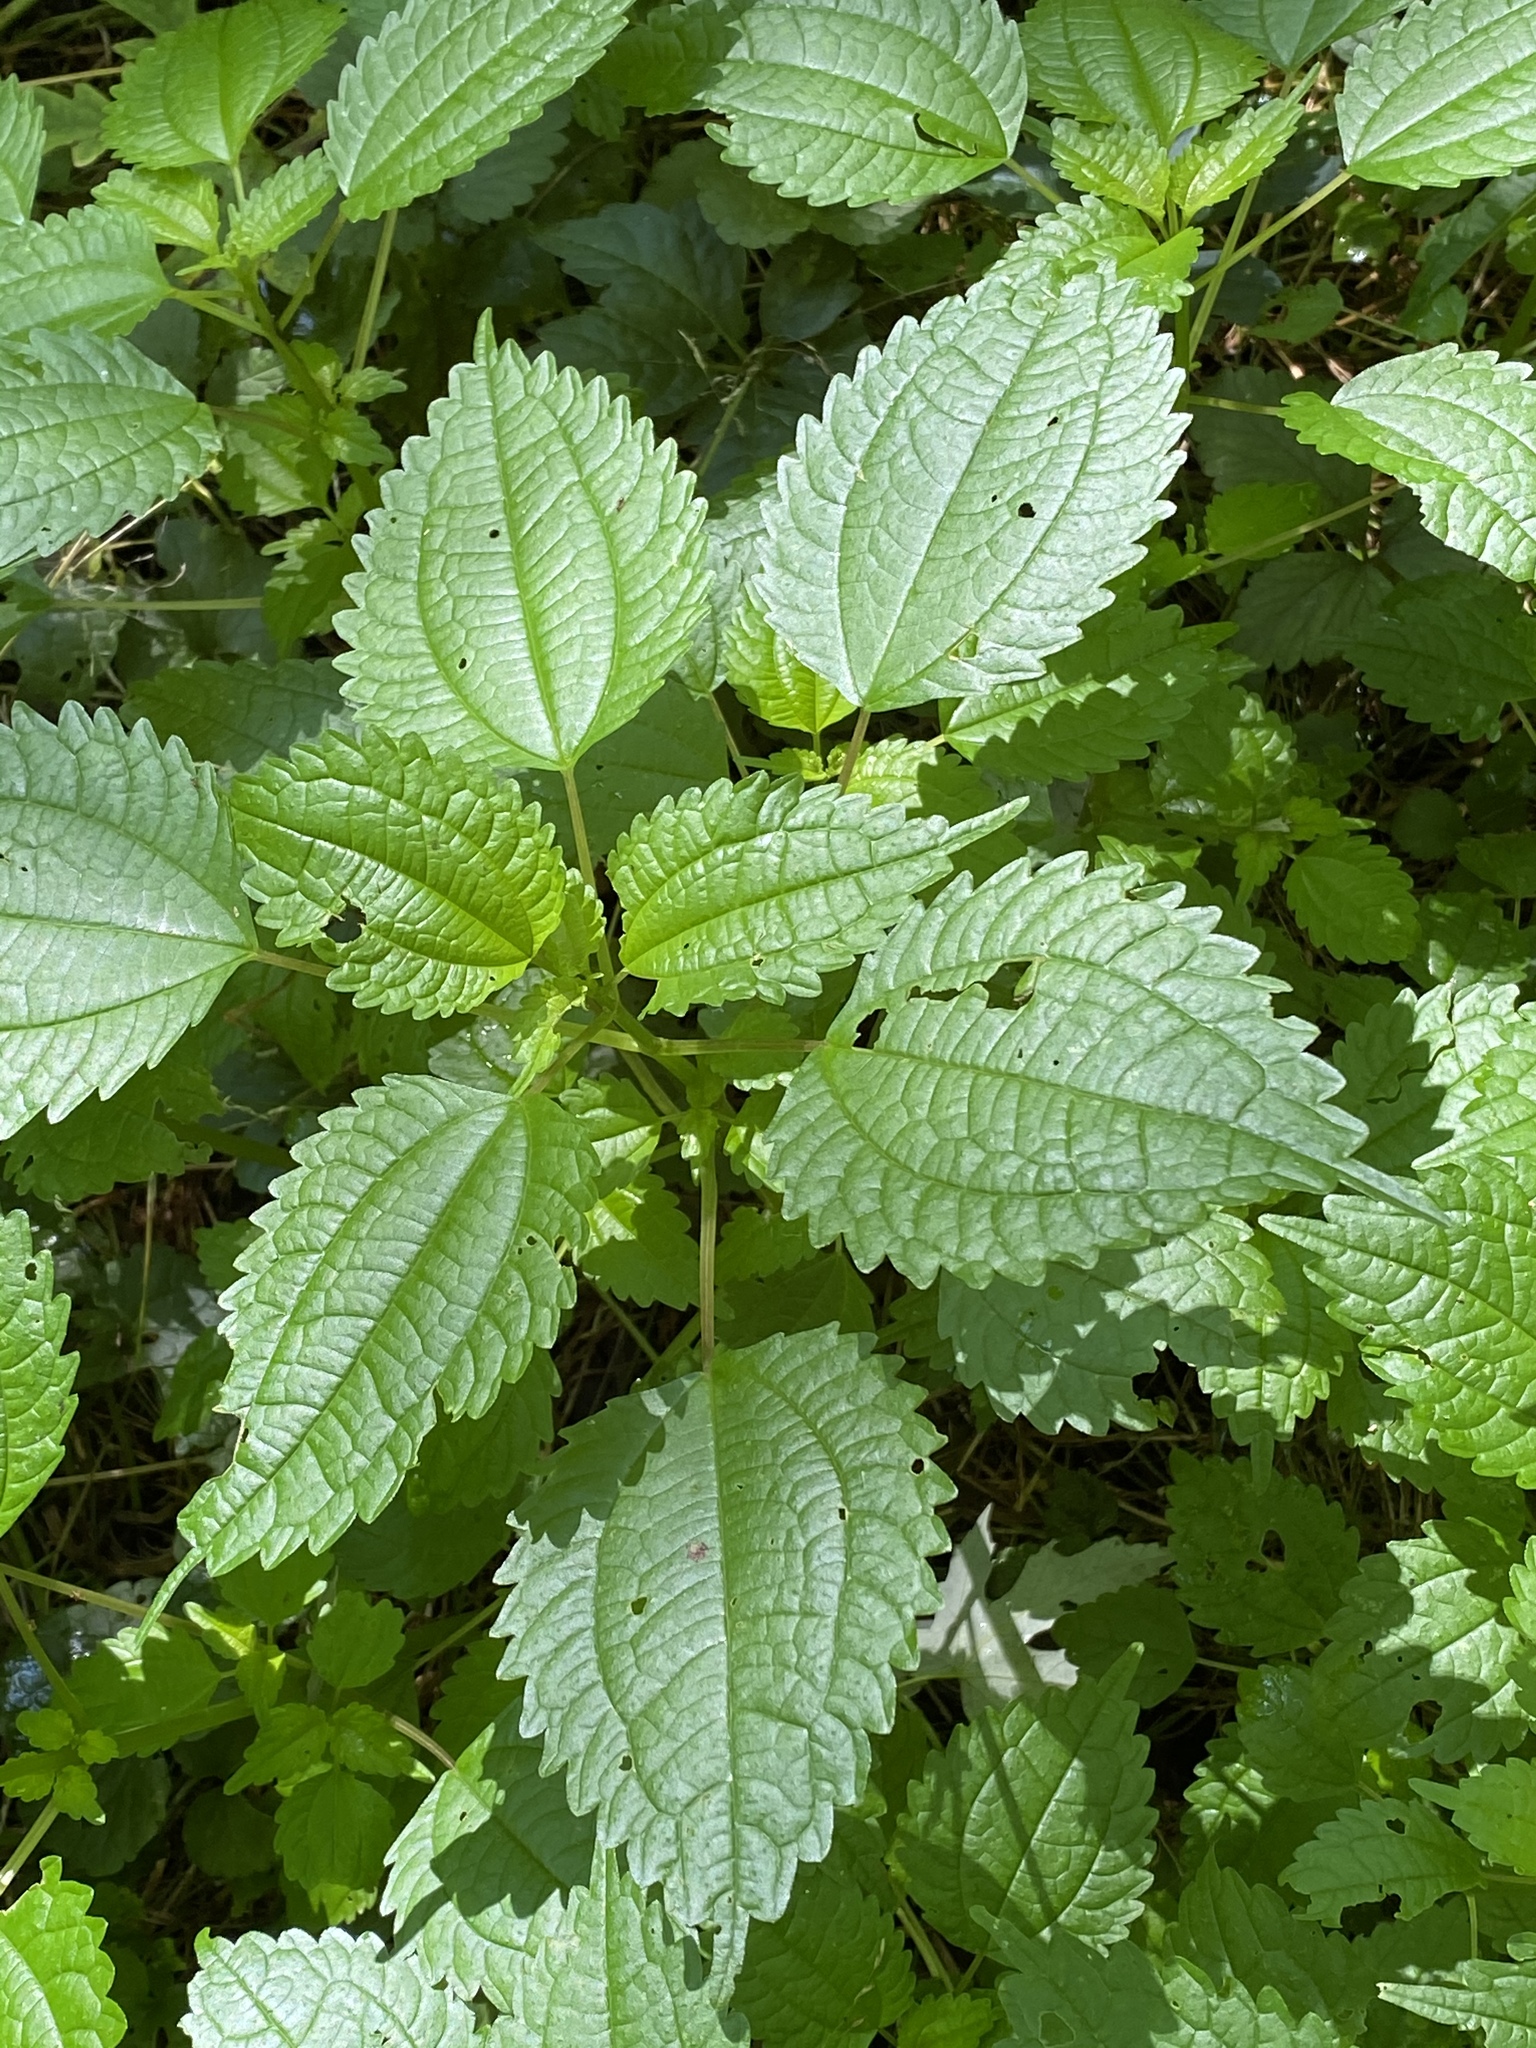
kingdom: Plantae
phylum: Tracheophyta
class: Magnoliopsida
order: Rosales
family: Urticaceae
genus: Pilea
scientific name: Pilea pumila
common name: Clearweed
